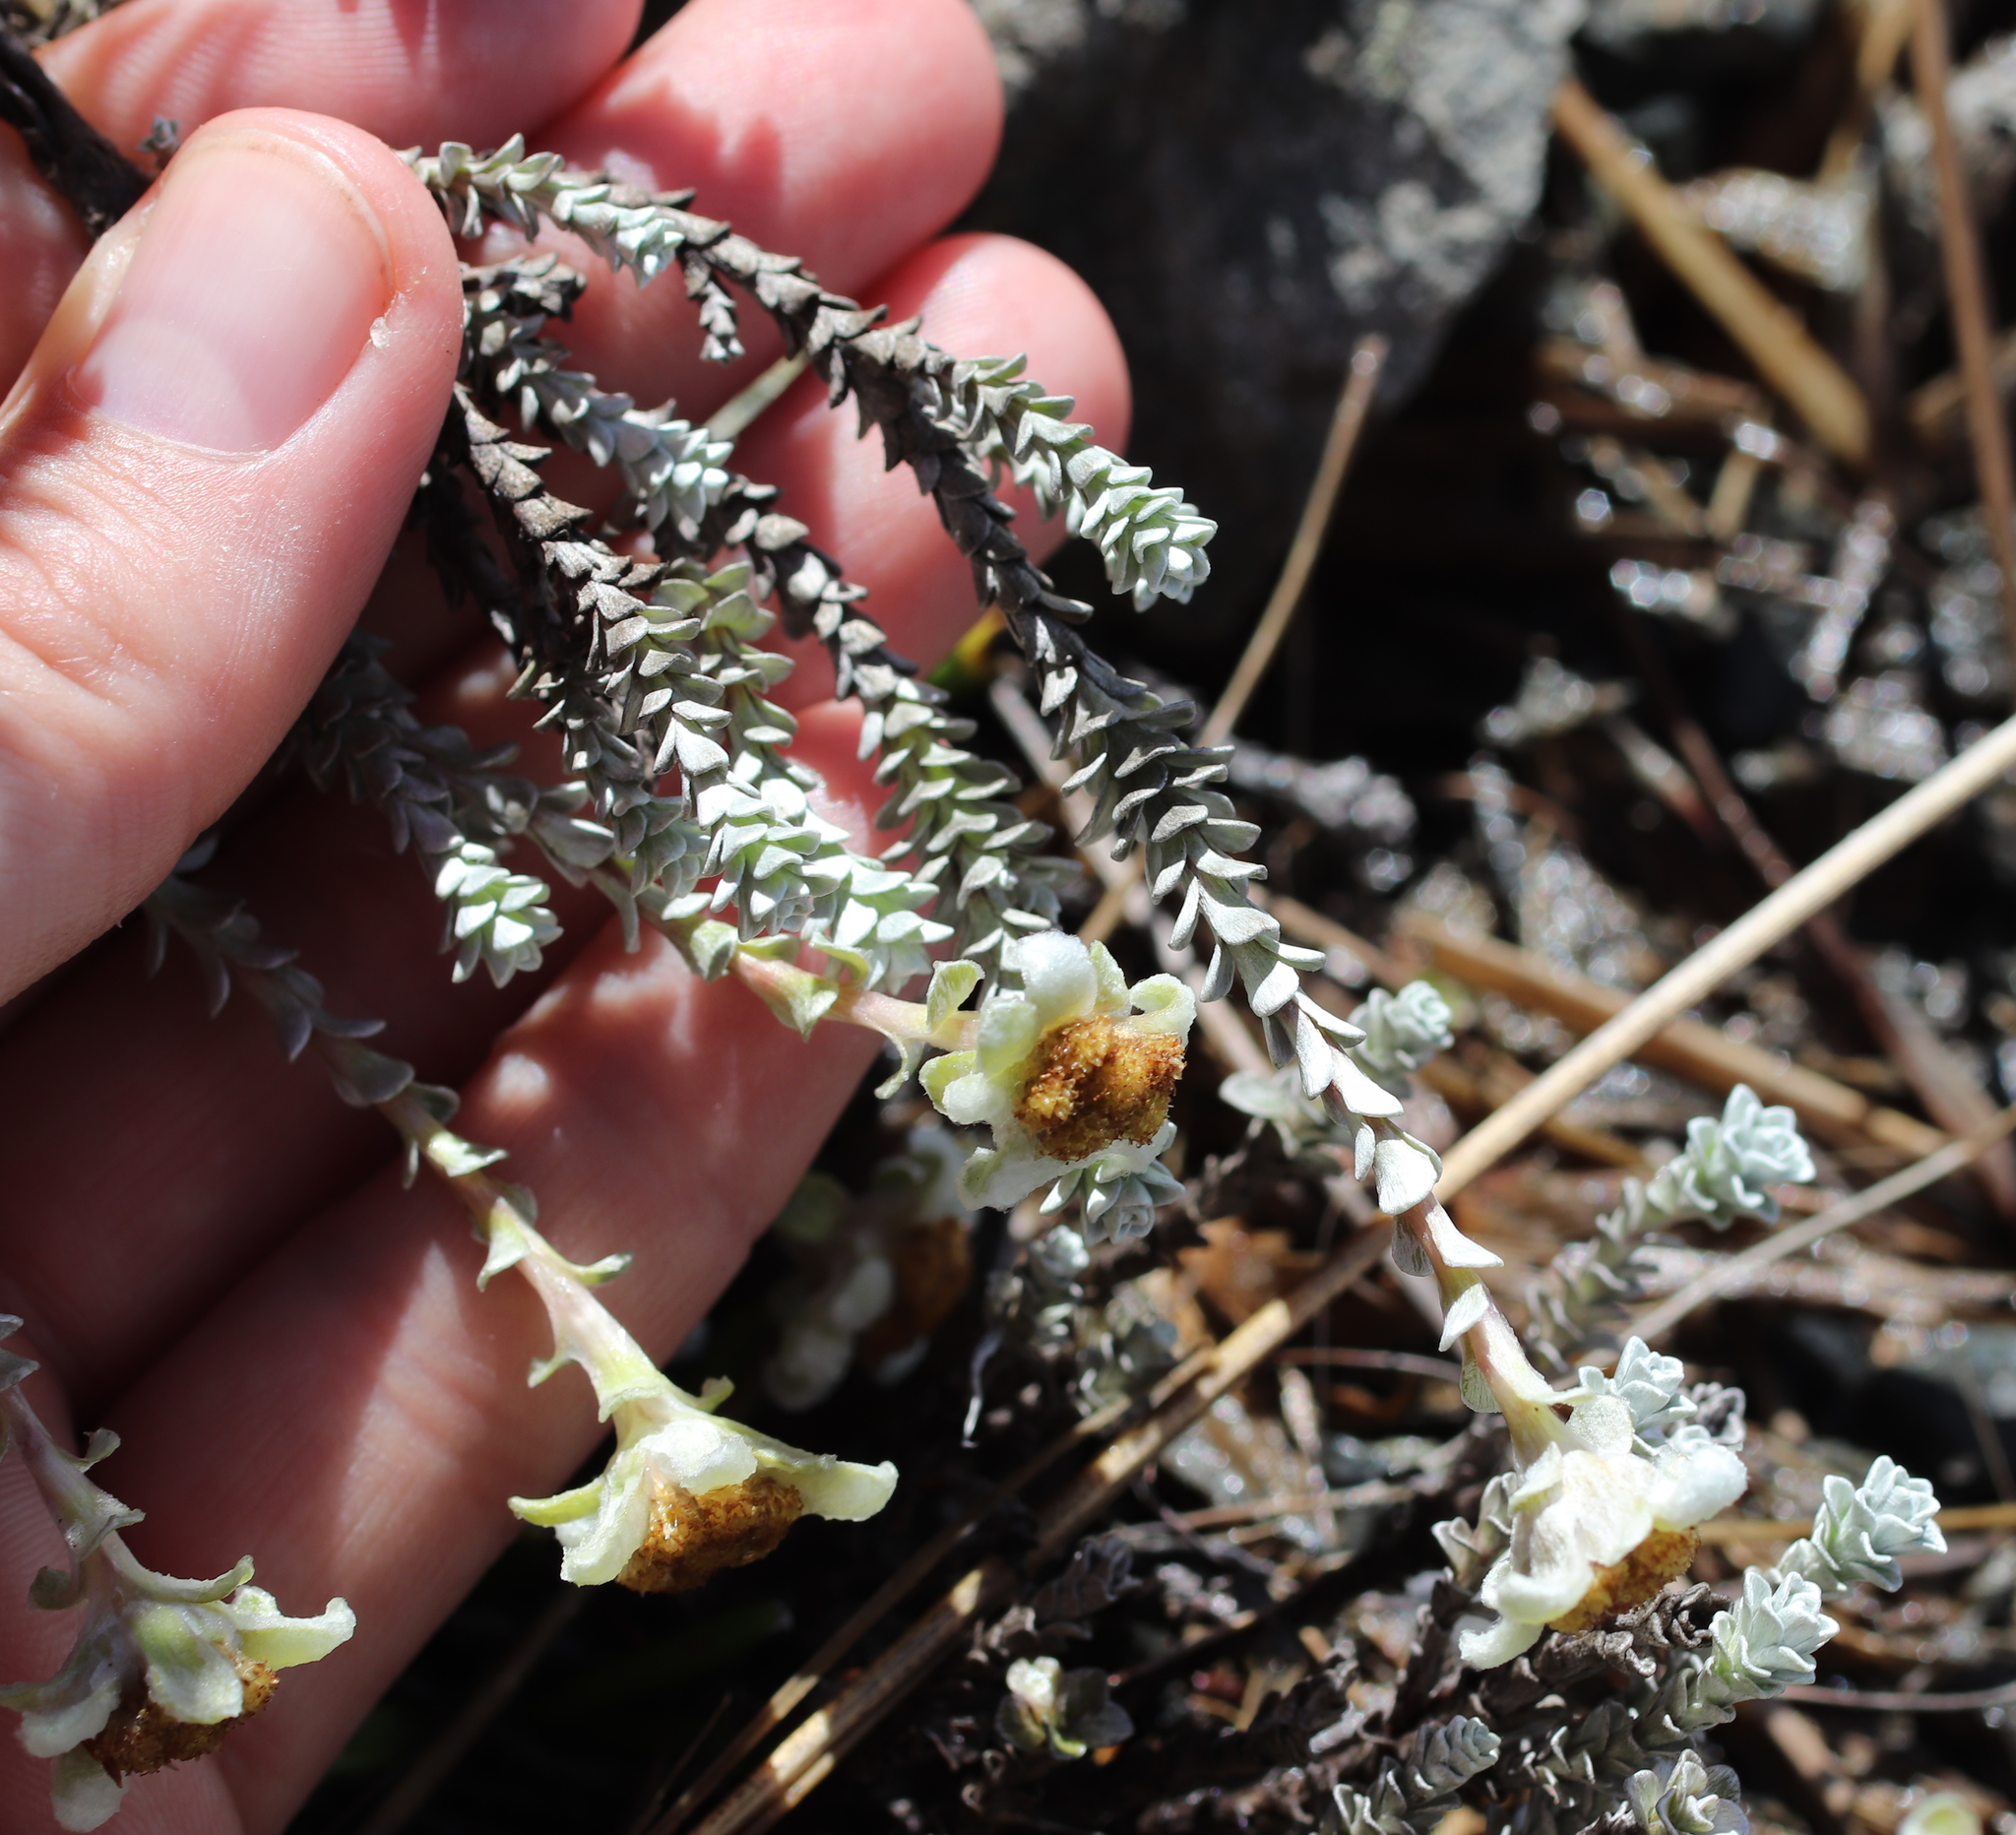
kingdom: Plantae
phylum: Tracheophyta
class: Magnoliopsida
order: Asterales
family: Asteraceae
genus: Leucogenes
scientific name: Leucogenes grandiceps
